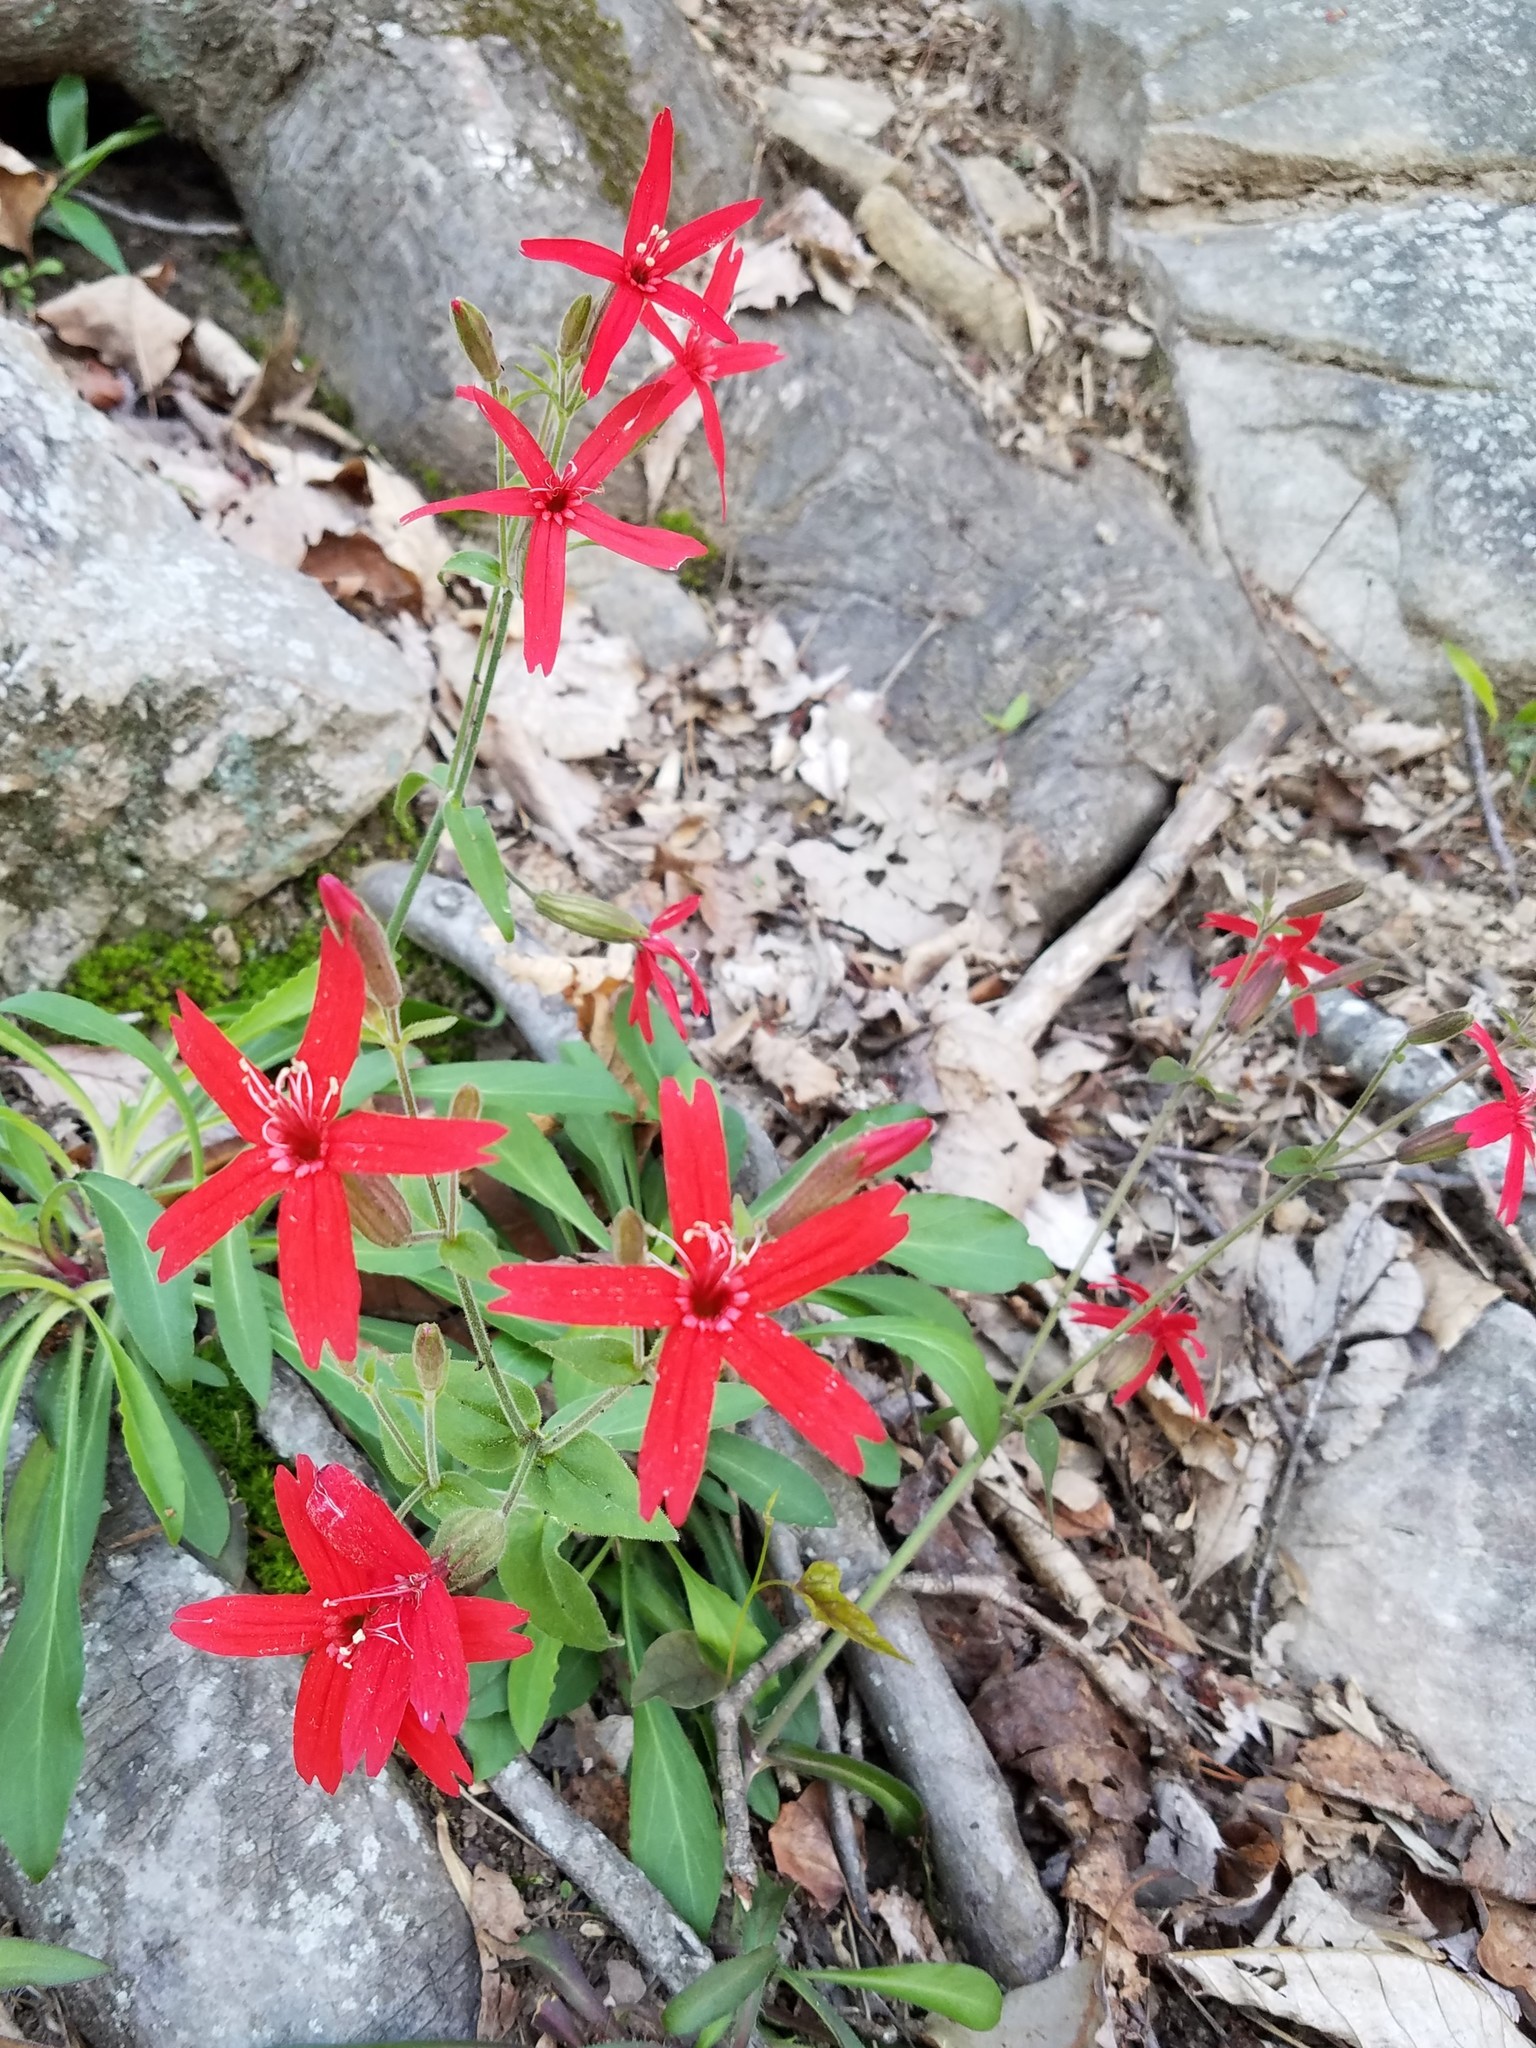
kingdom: Plantae
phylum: Tracheophyta
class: Magnoliopsida
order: Caryophyllales
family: Caryophyllaceae
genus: Silene
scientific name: Silene virginica
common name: Fire-pink
